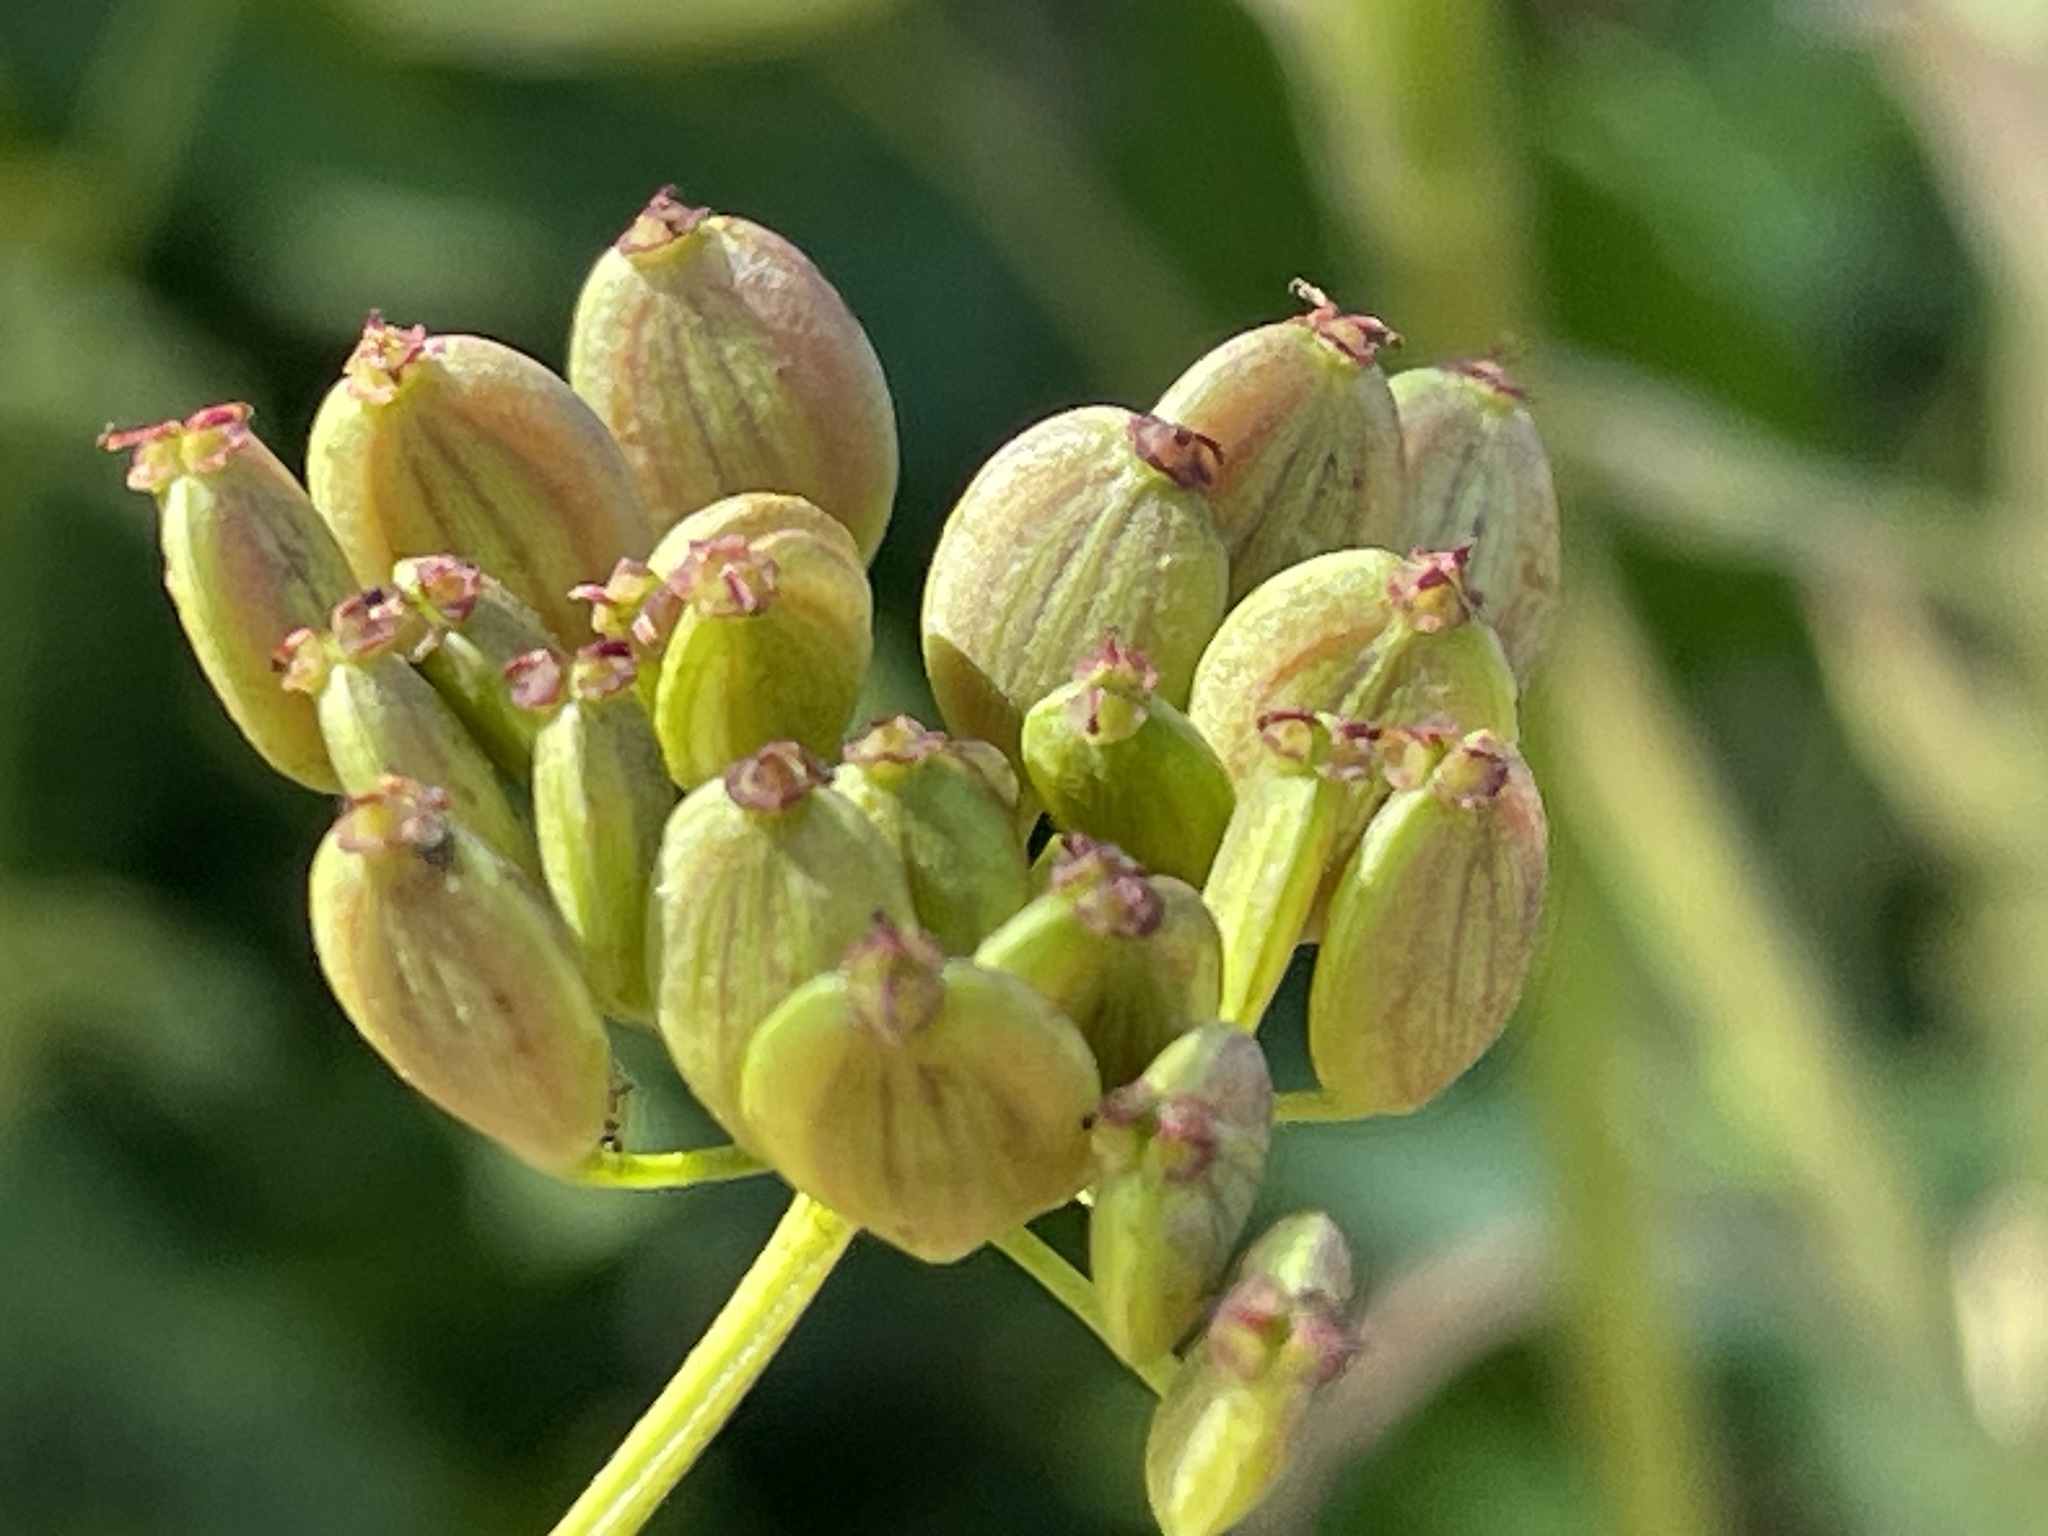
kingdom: Plantae
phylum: Tracheophyta
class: Magnoliopsida
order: Apiales
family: Apiaceae
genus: Pastinaca
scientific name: Pastinaca sativa
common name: Wild parsnip
